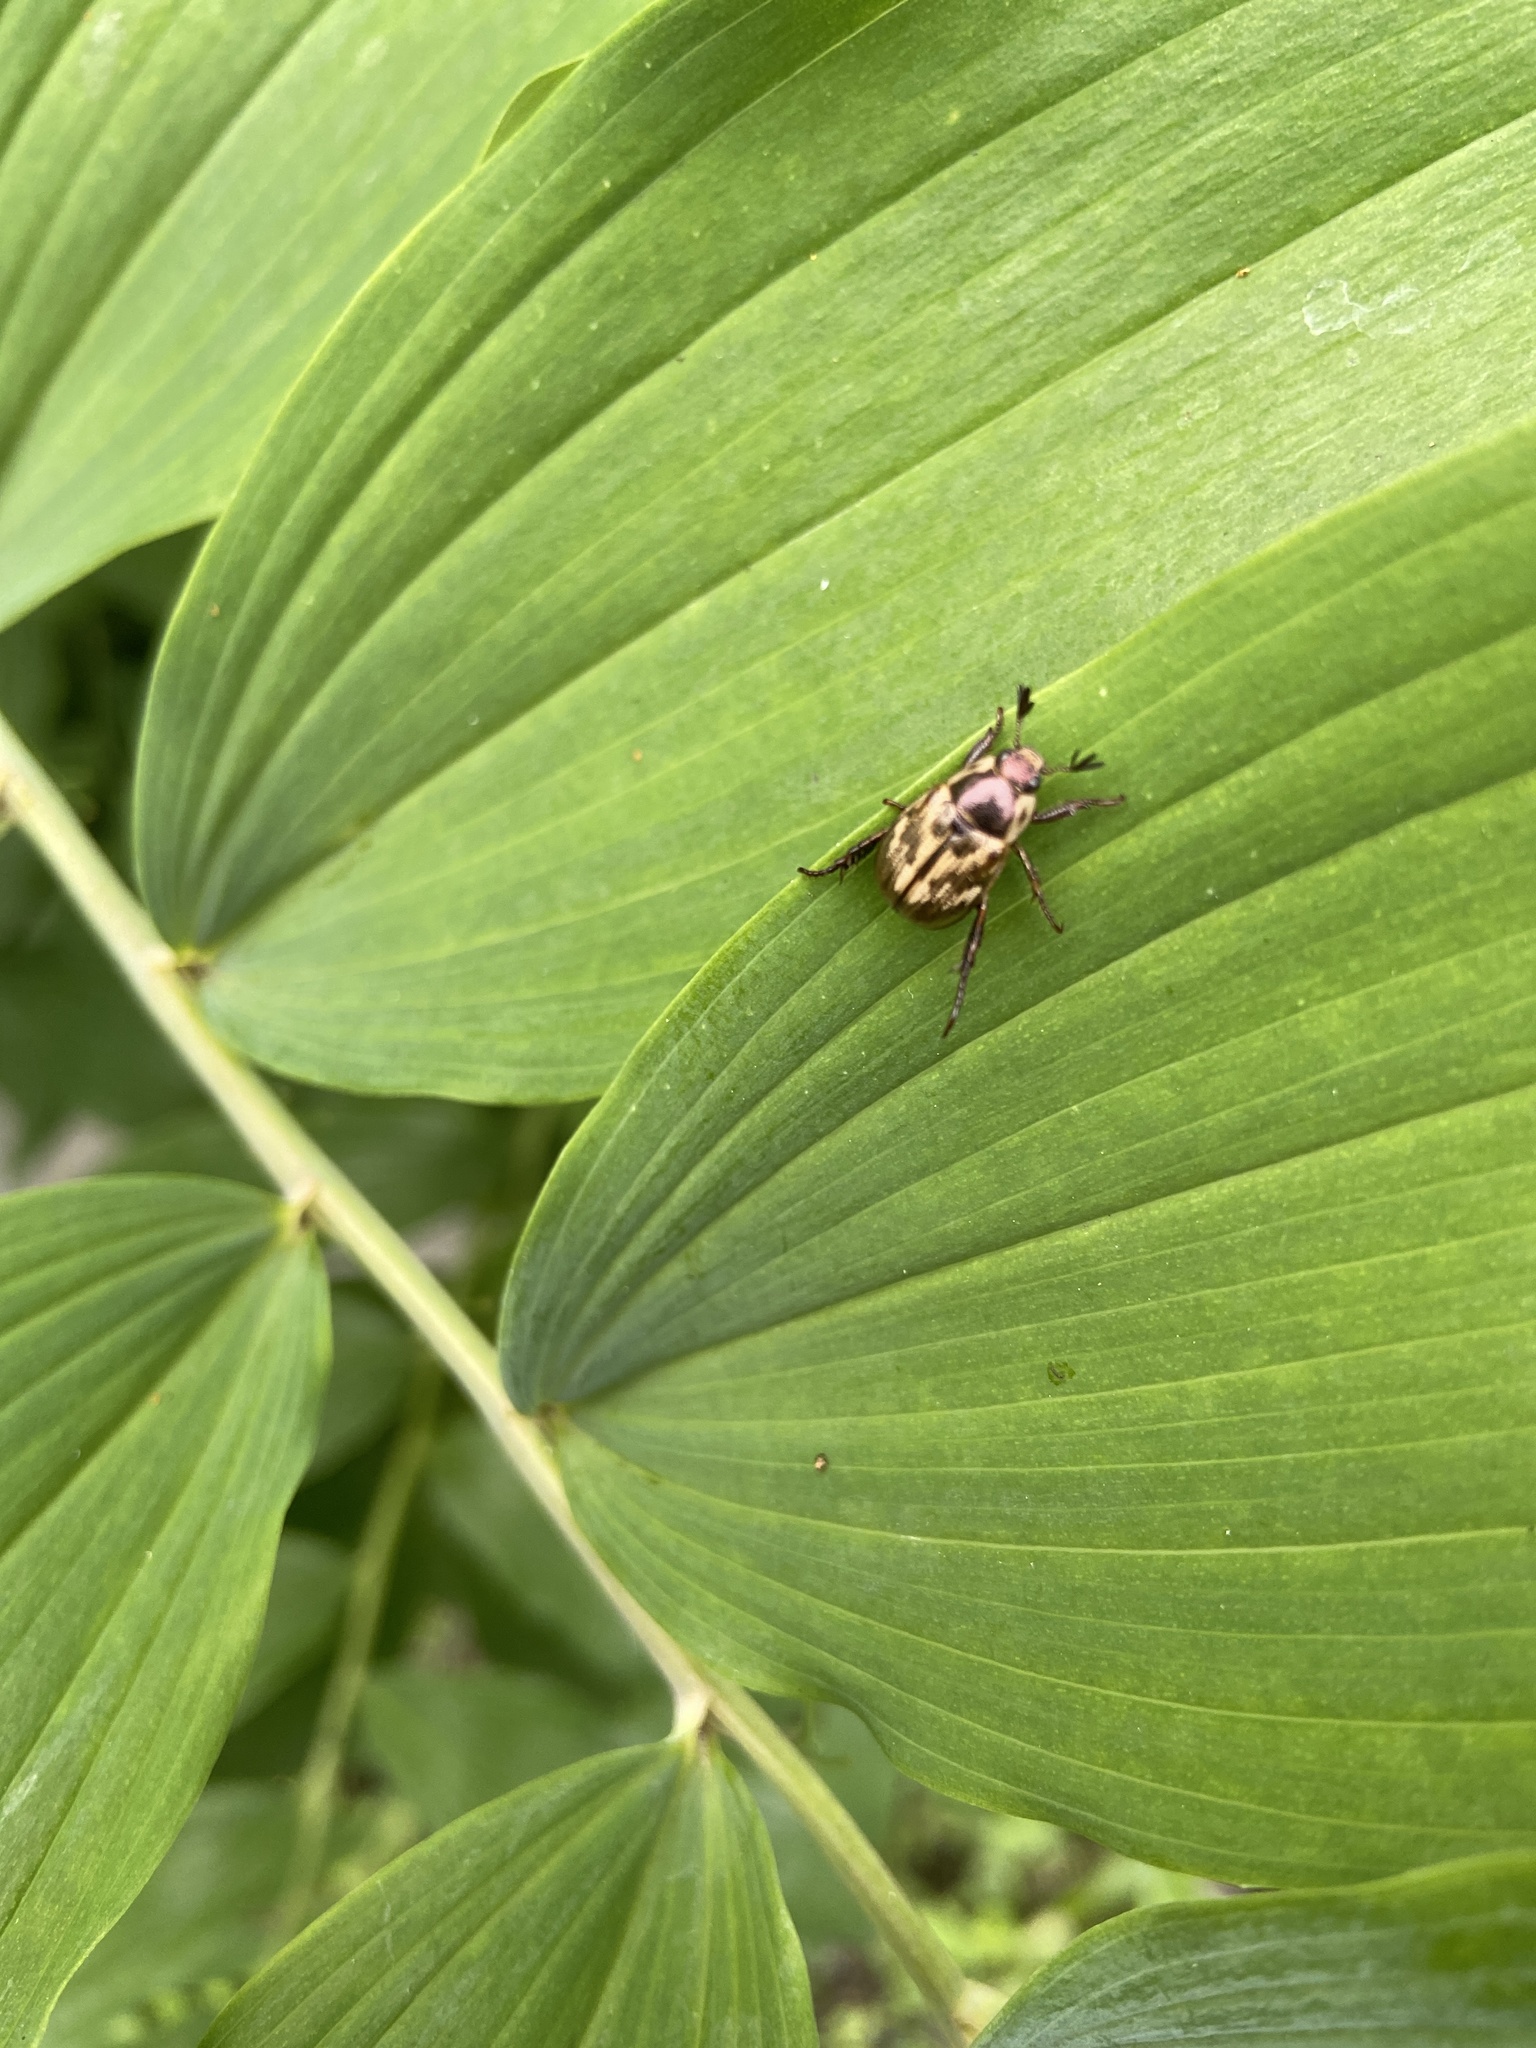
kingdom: Animalia
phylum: Arthropoda
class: Insecta
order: Coleoptera
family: Scarabaeidae
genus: Exomala
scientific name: Exomala orientalis
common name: Oriental beetle
